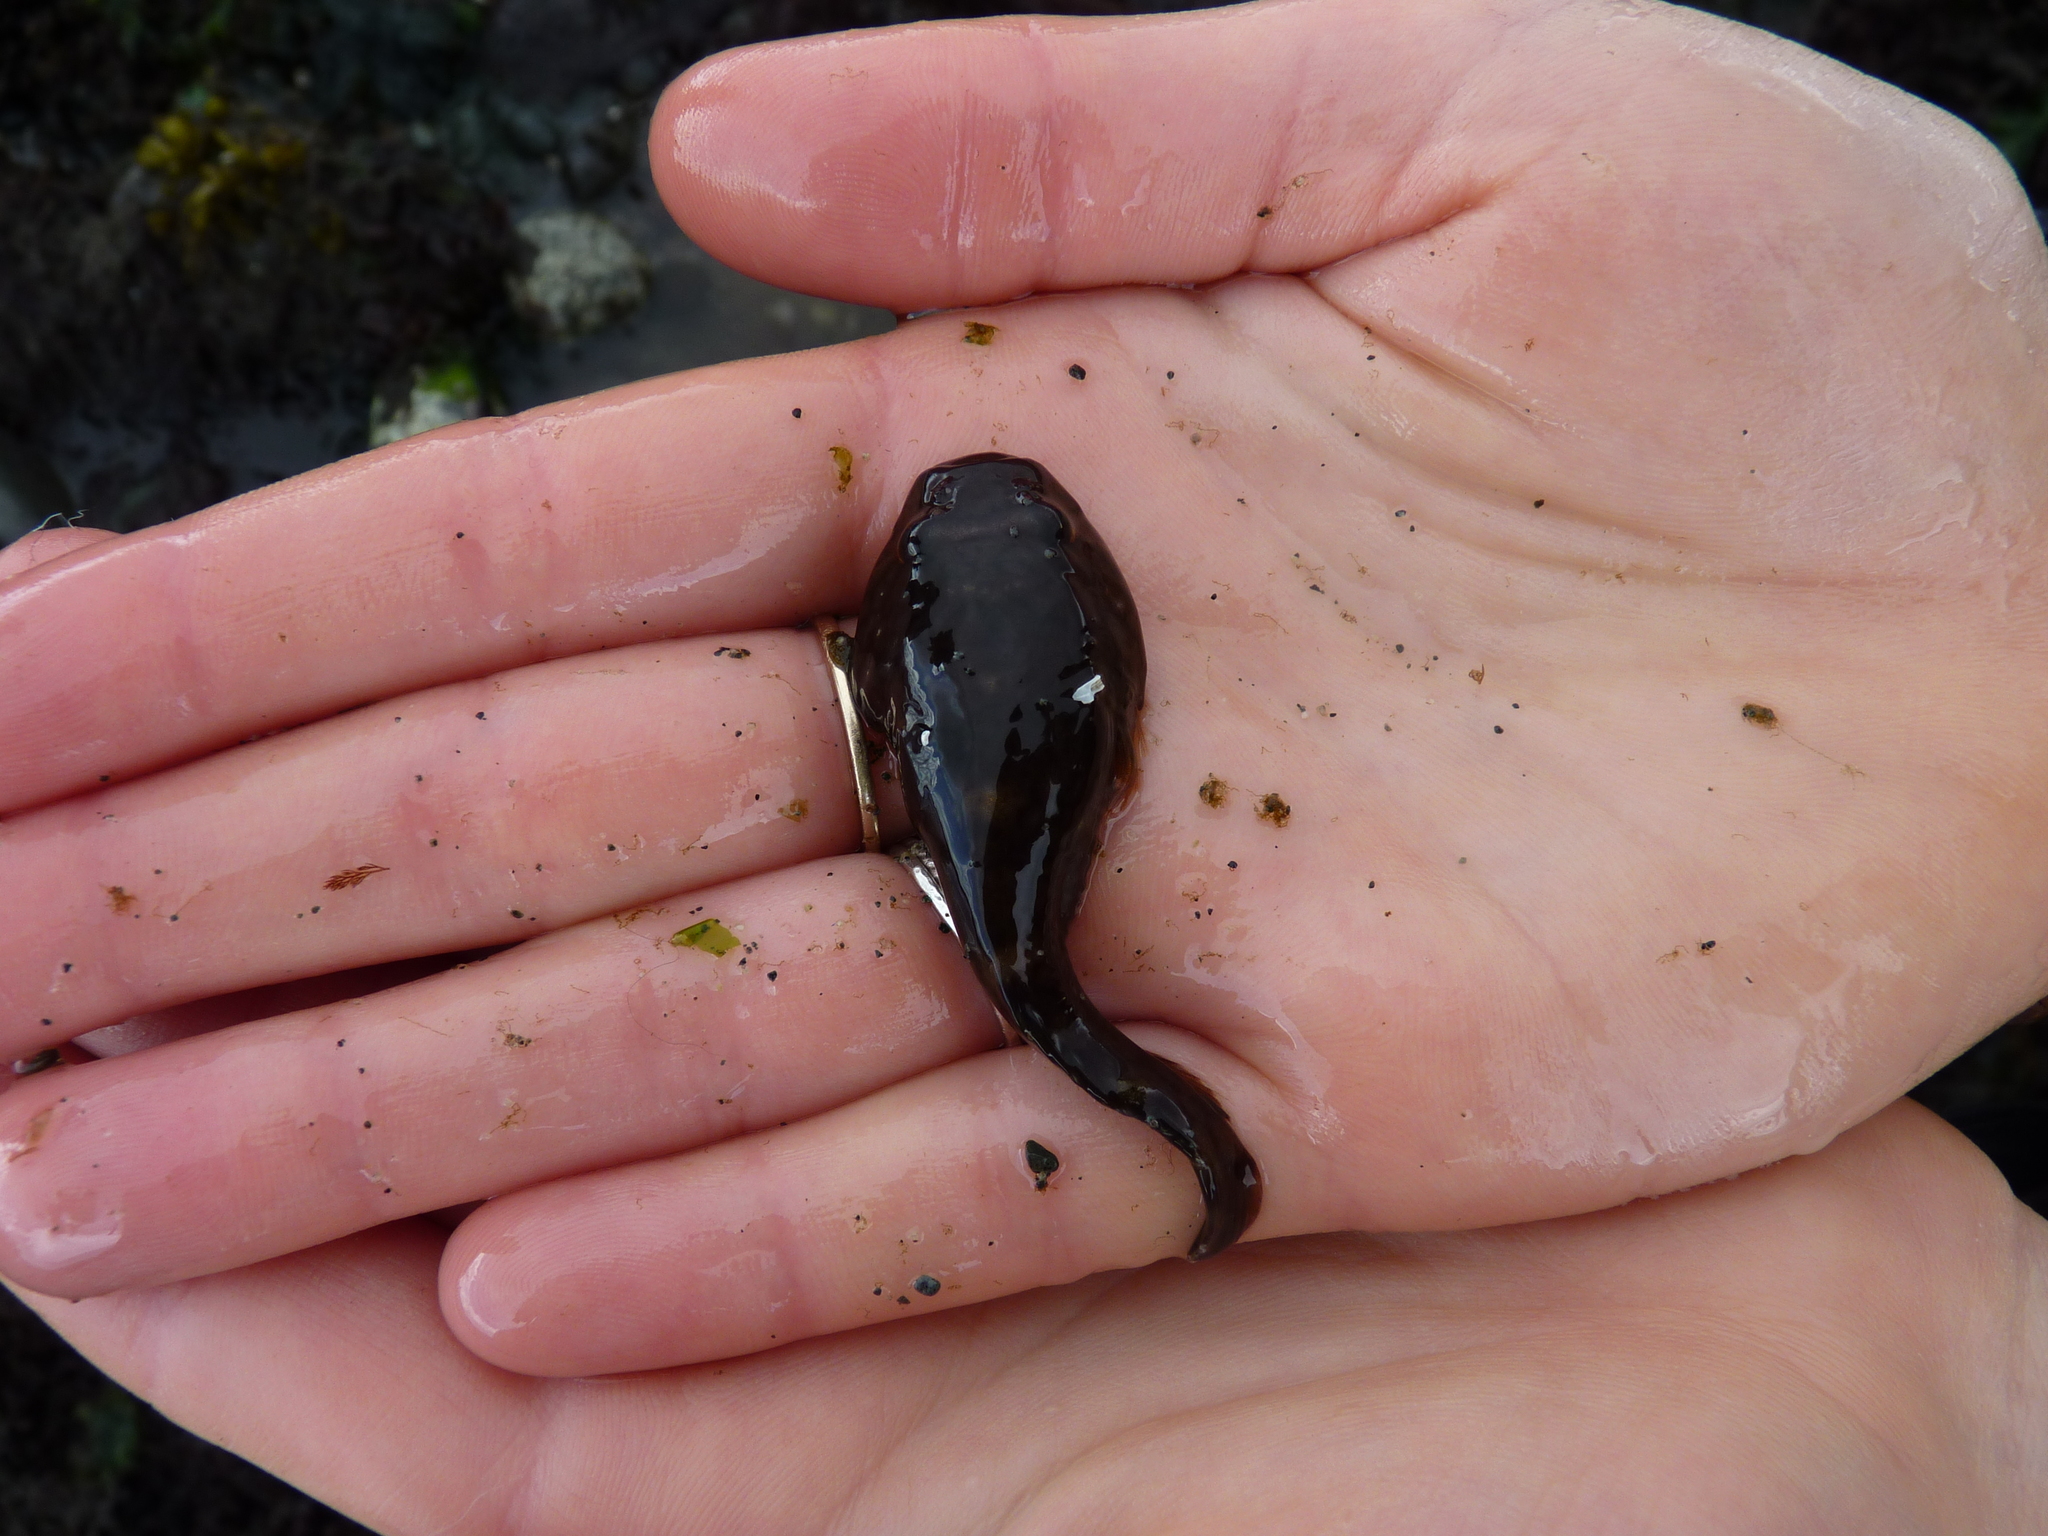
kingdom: Animalia
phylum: Chordata
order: Gobiesociformes
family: Gobiesocidae
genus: Gobiesox
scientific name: Gobiesox maeandricus
